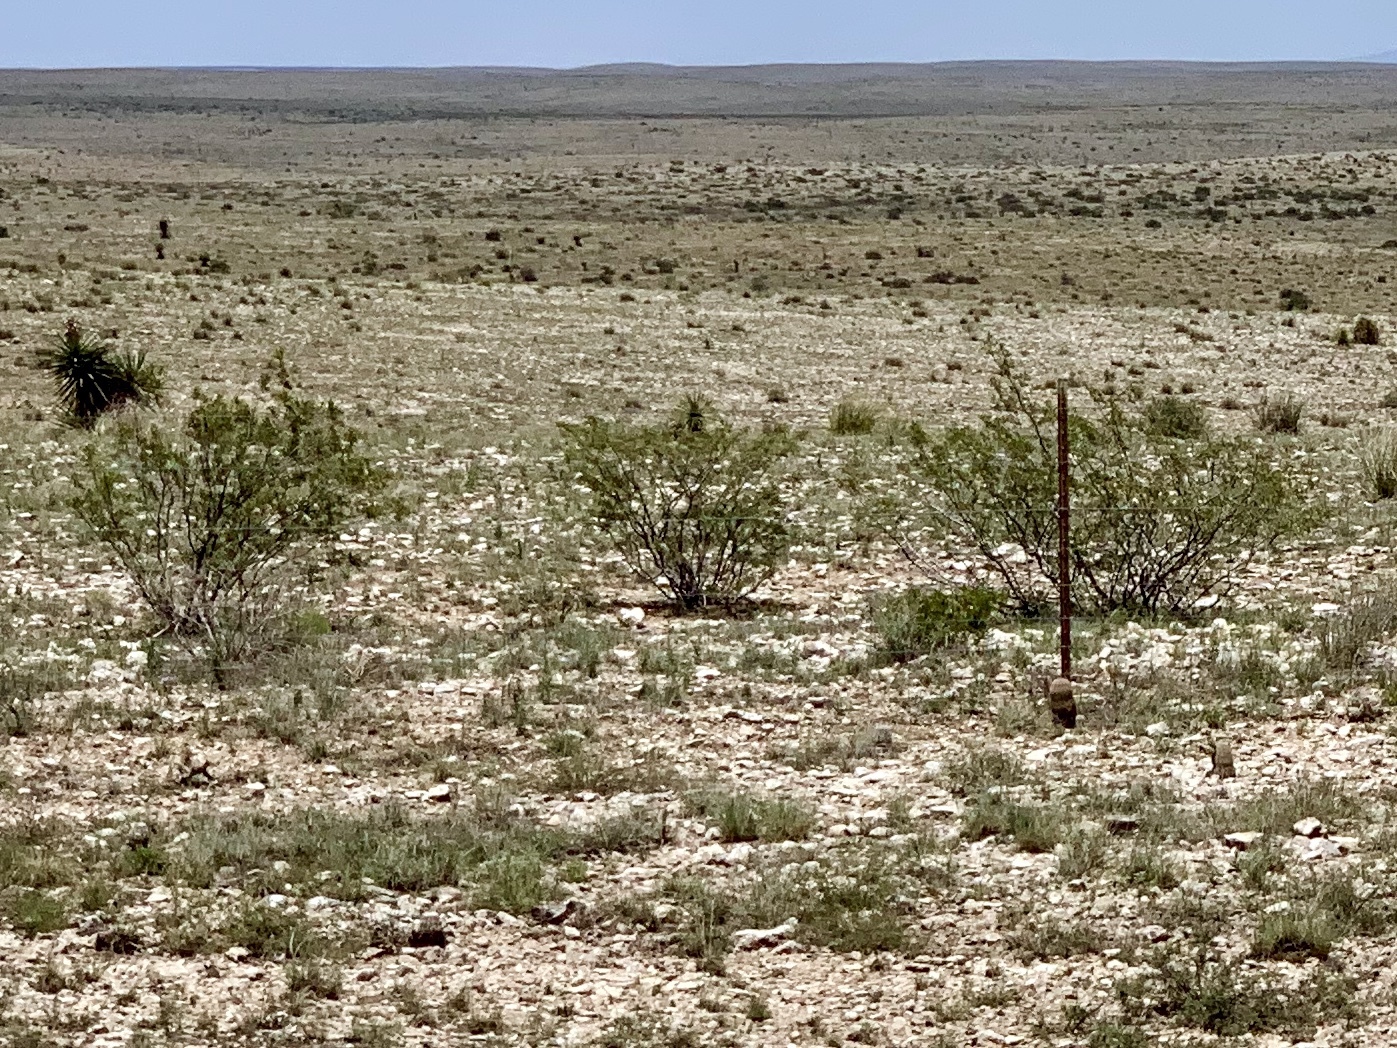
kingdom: Plantae
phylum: Tracheophyta
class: Magnoliopsida
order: Zygophyllales
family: Zygophyllaceae
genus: Larrea
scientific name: Larrea tridentata
